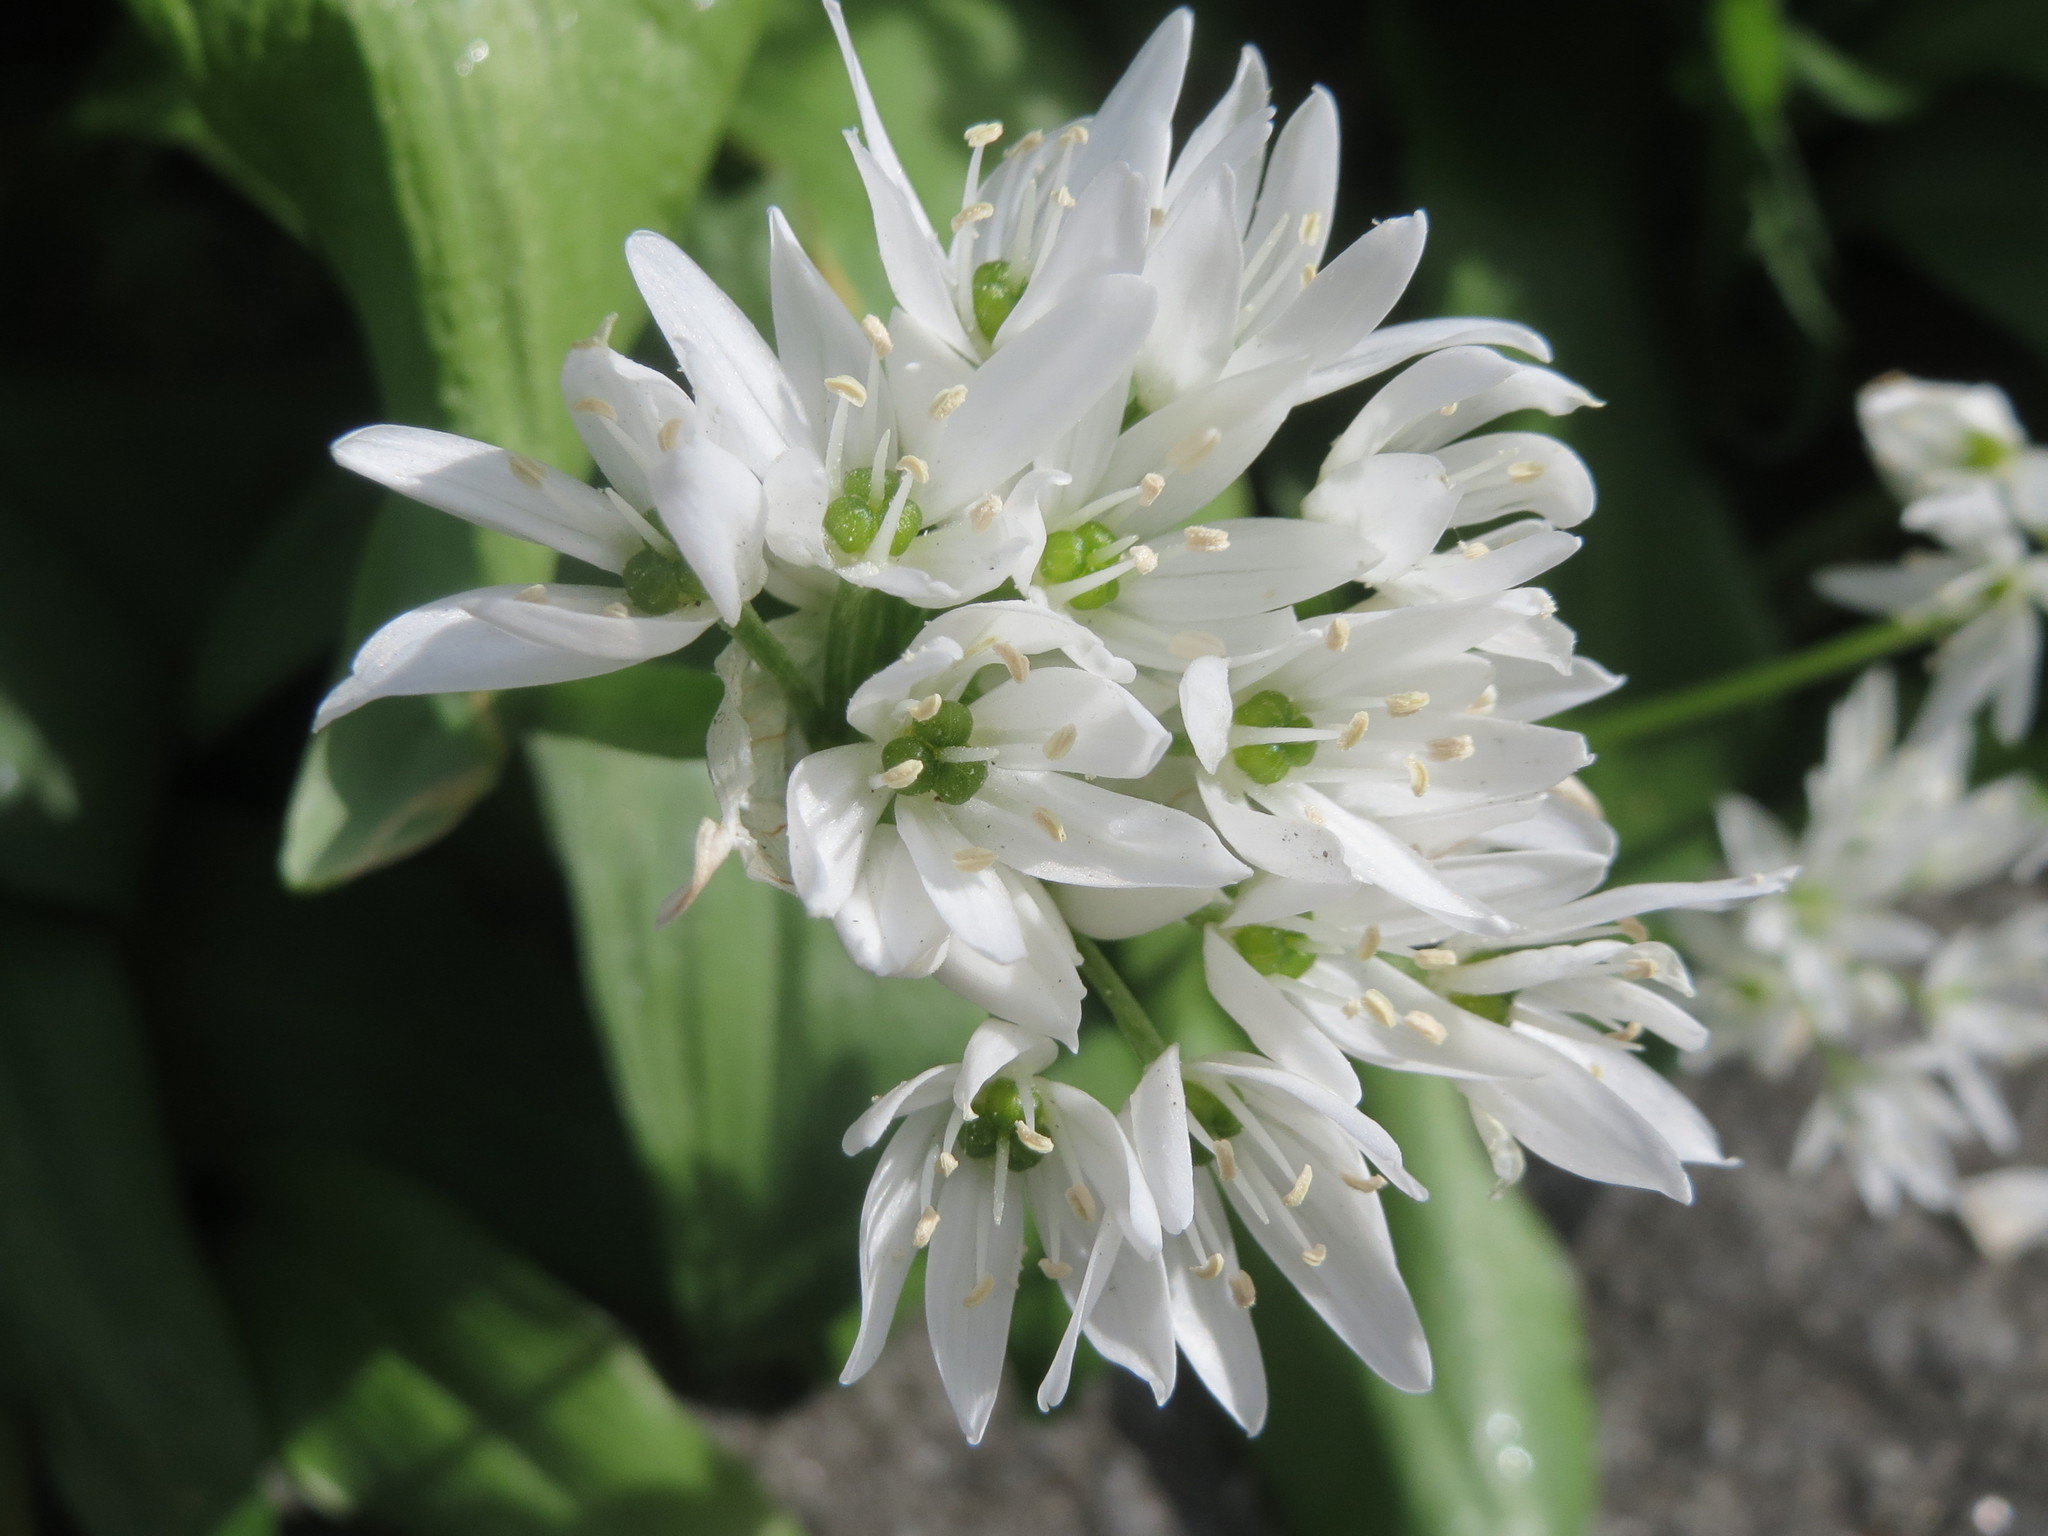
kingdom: Plantae
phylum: Tracheophyta
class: Liliopsida
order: Asparagales
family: Amaryllidaceae
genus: Allium
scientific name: Allium ursinum
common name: Ramsons
